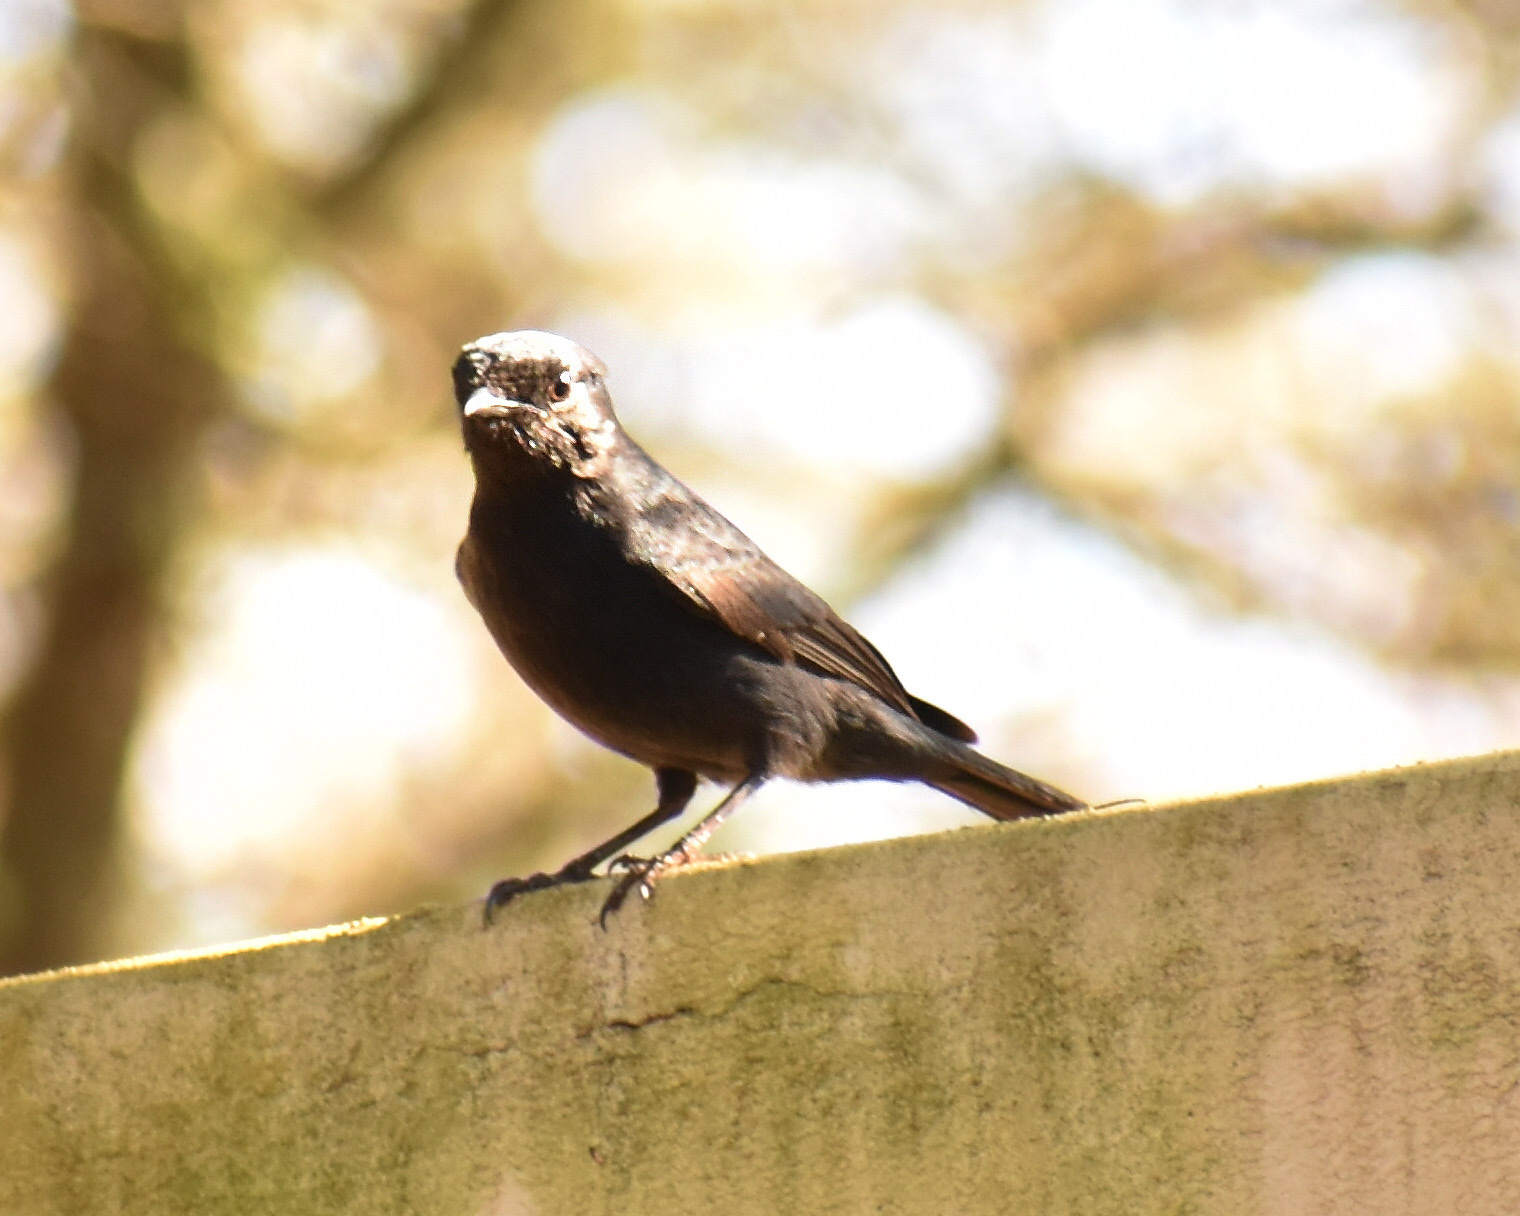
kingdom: Animalia
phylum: Chordata
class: Aves
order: Passeriformes
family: Muscicapidae
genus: Melaenornis
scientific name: Melaenornis pammelaina
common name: Southern black flycatcher
